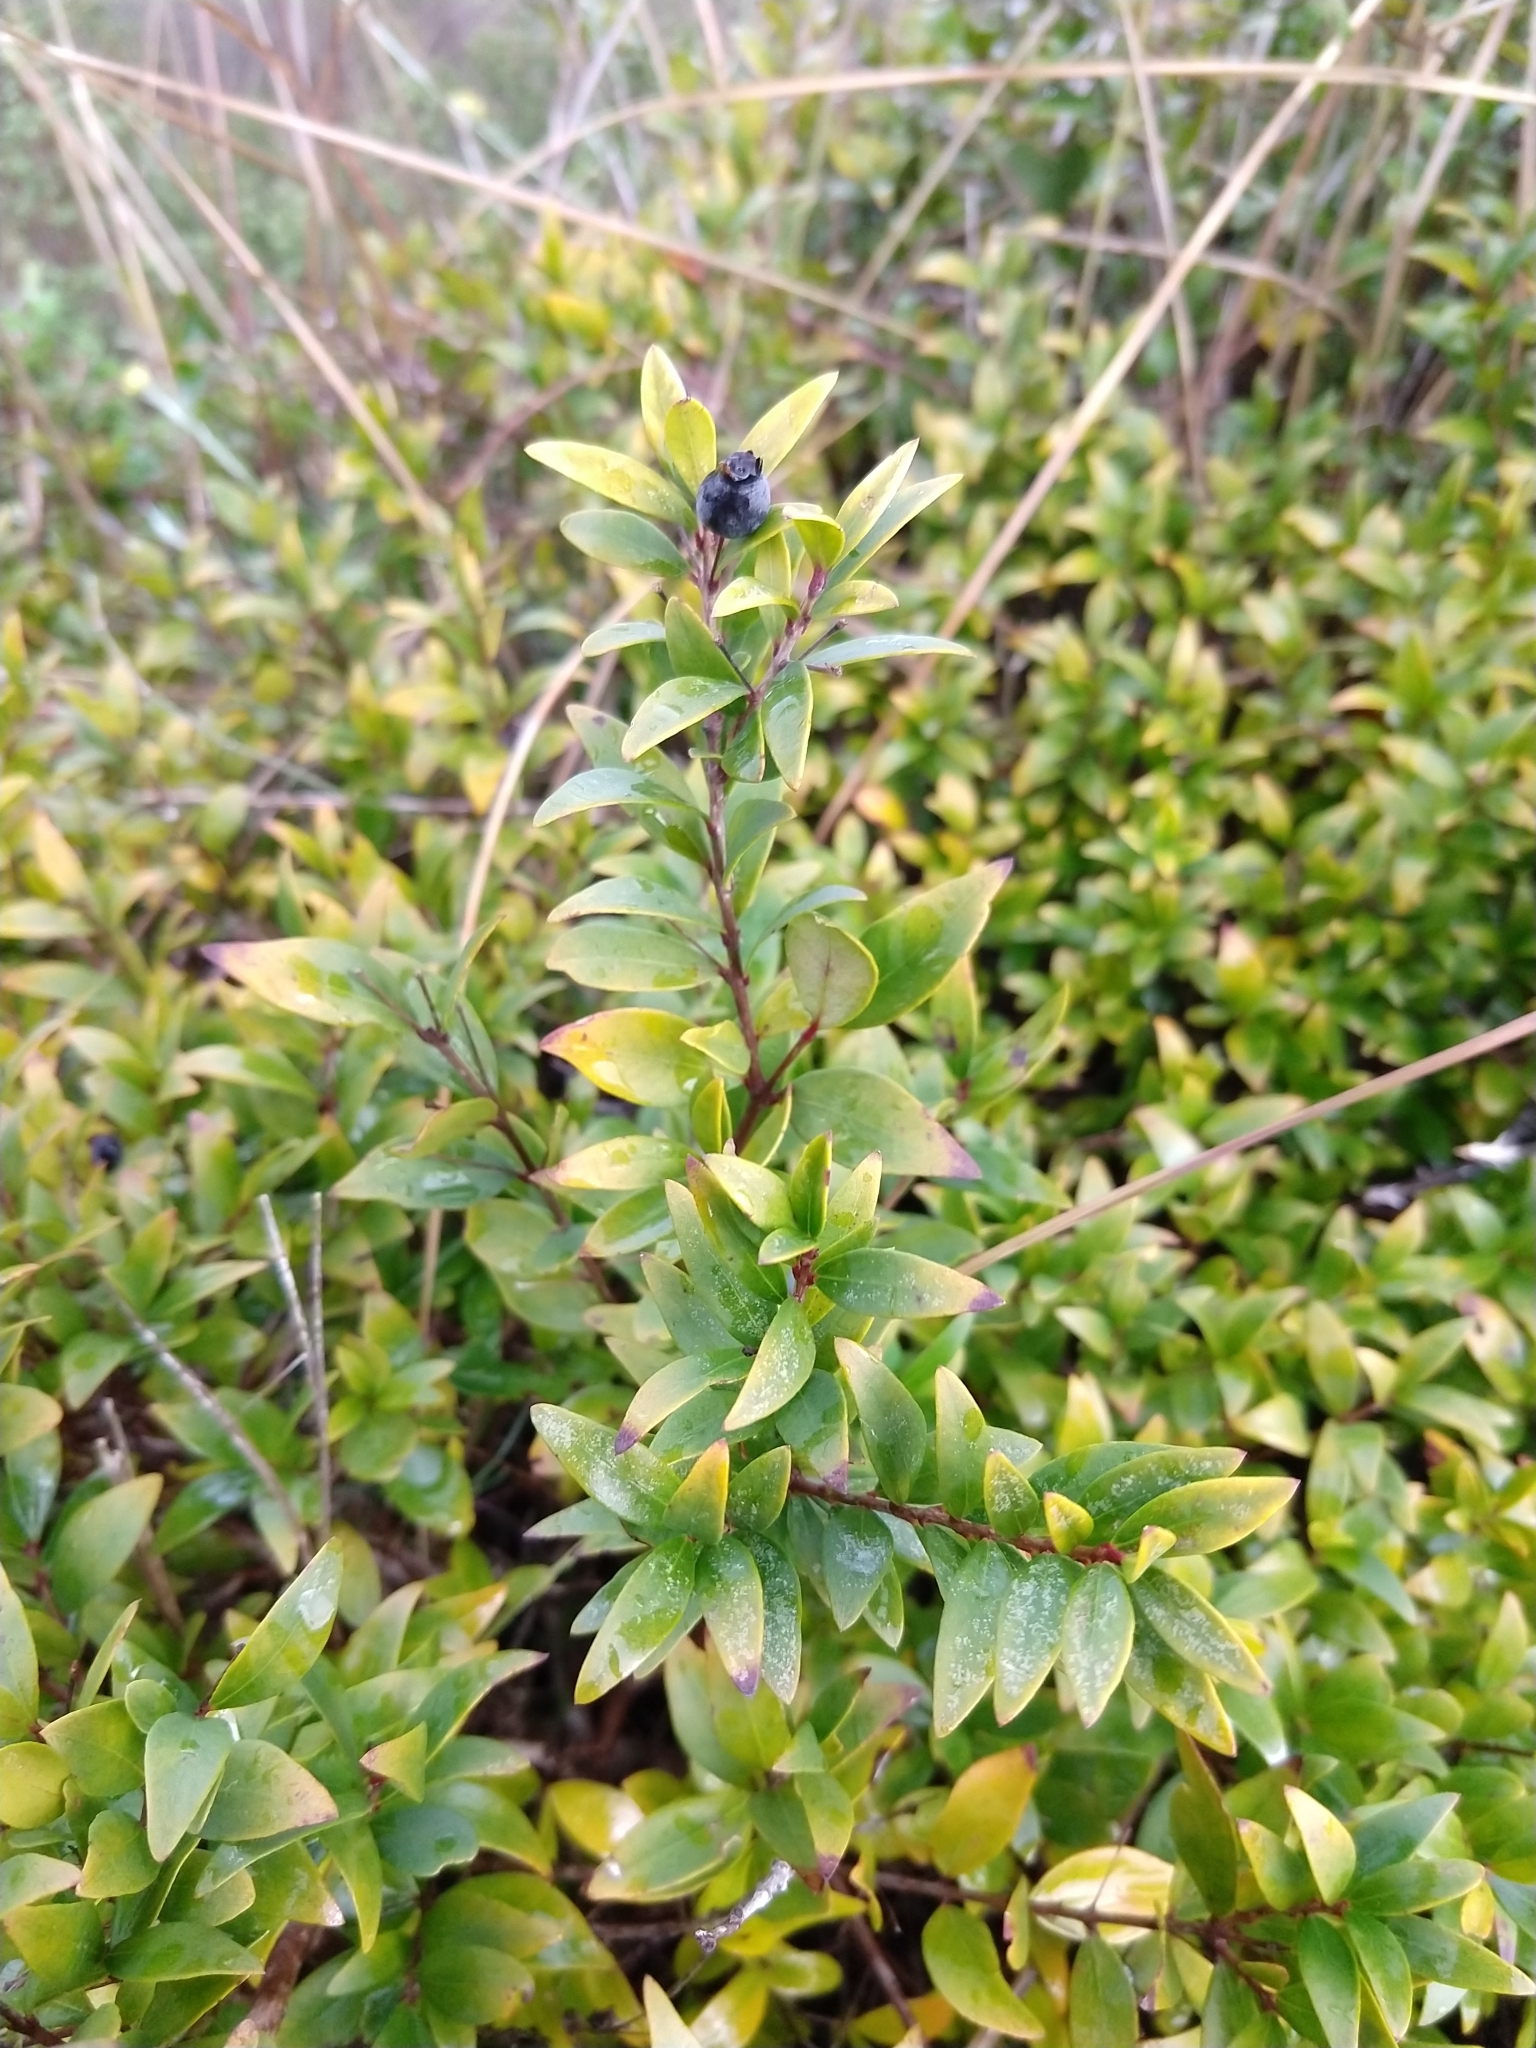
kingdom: Plantae
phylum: Tracheophyta
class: Magnoliopsida
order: Myrtales
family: Myrtaceae
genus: Myrtus
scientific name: Myrtus communis
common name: Myrtle
